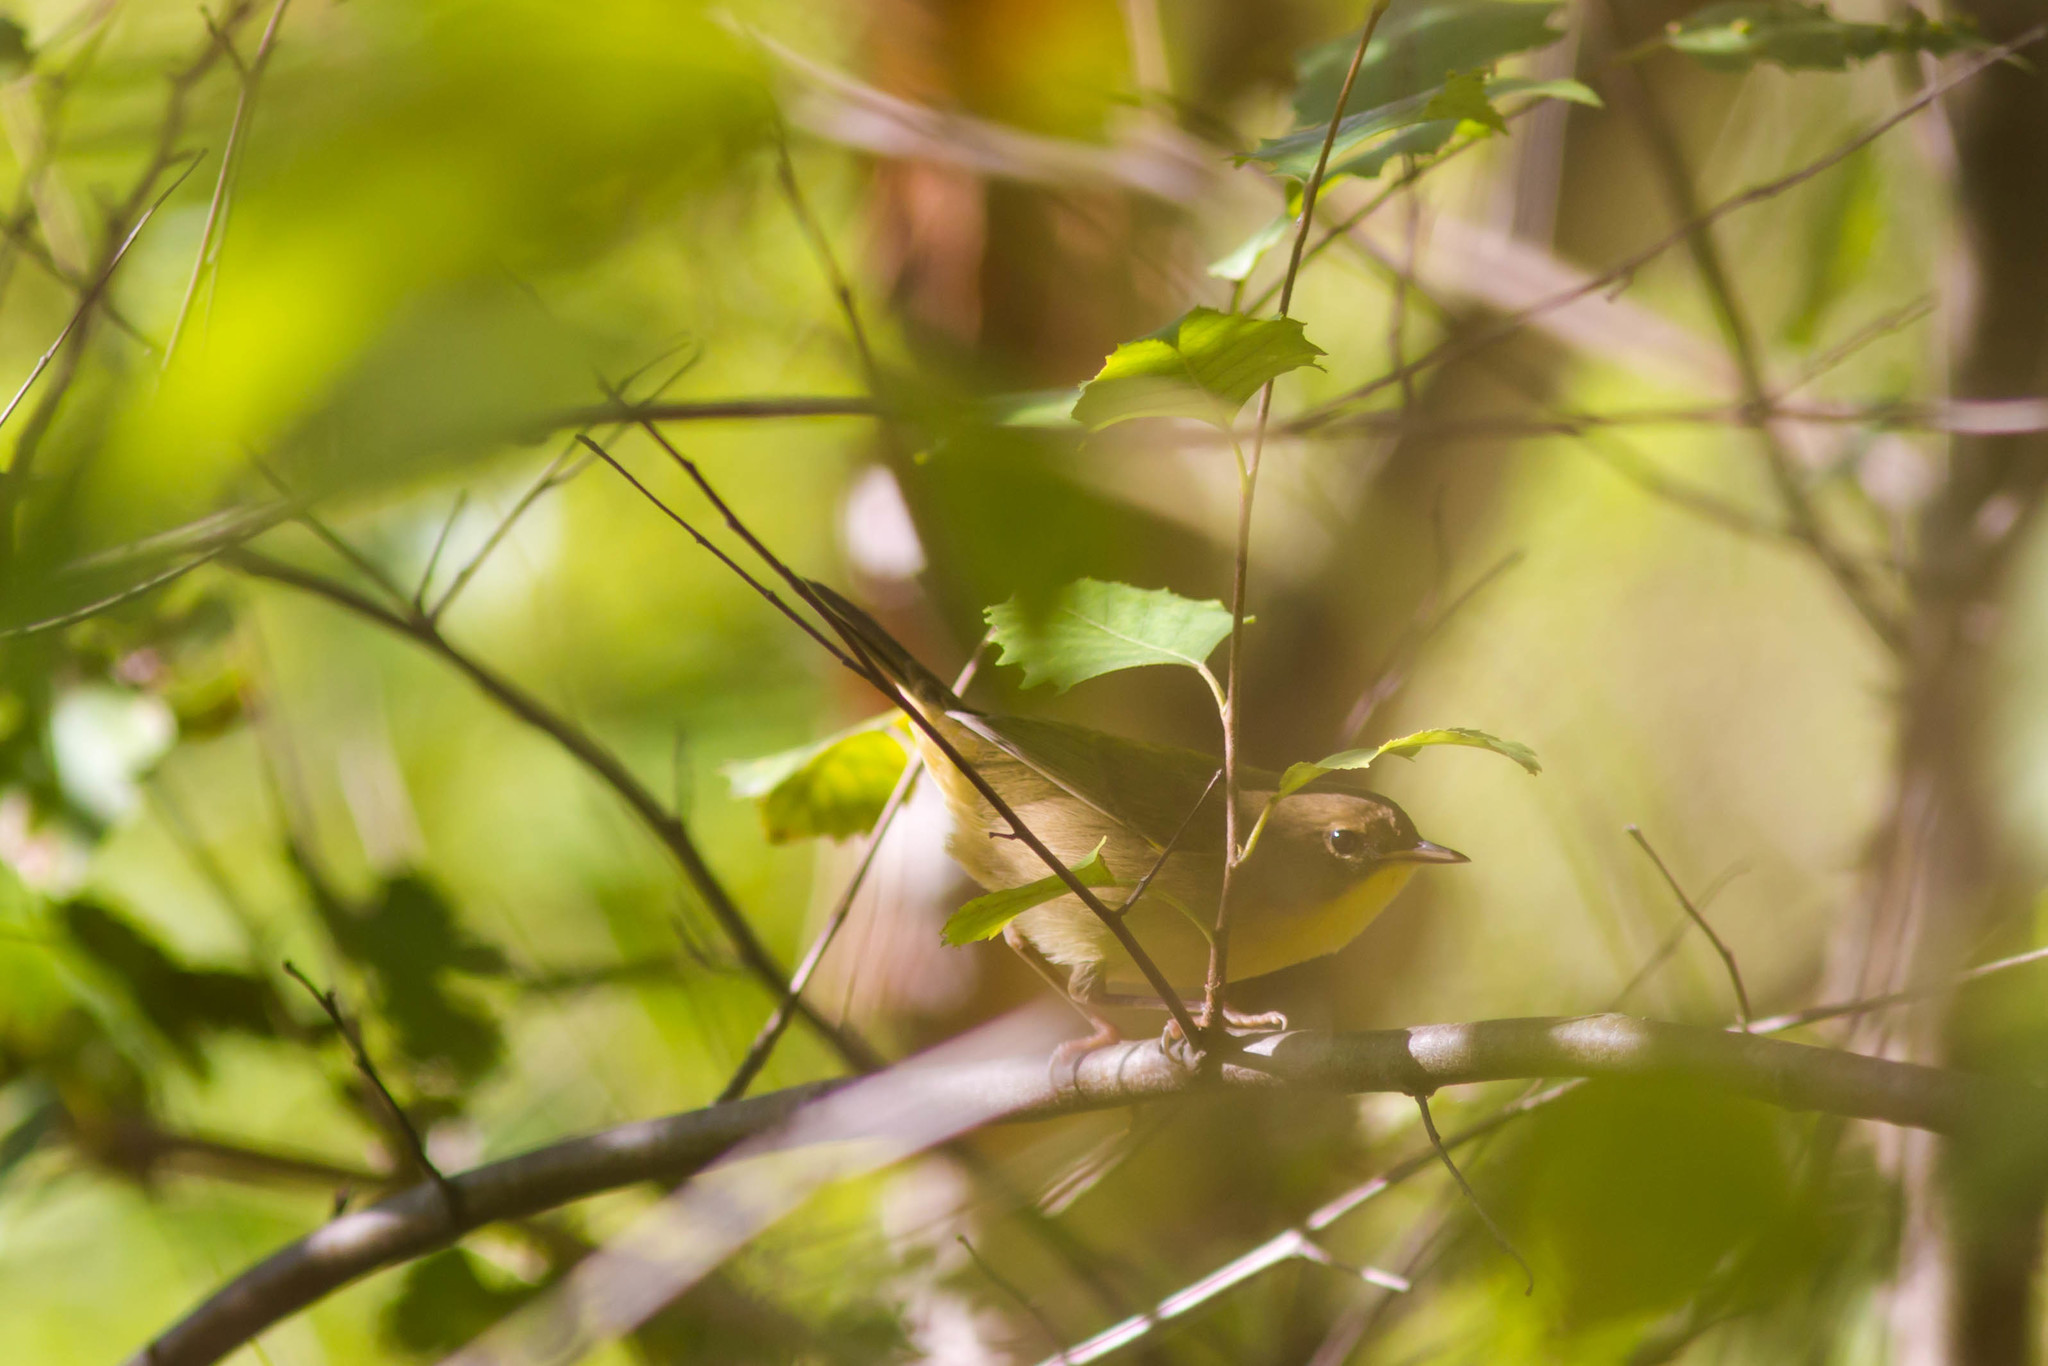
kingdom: Animalia
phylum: Chordata
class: Aves
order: Passeriformes
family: Parulidae
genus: Geothlypis
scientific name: Geothlypis trichas
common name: Common yellowthroat
